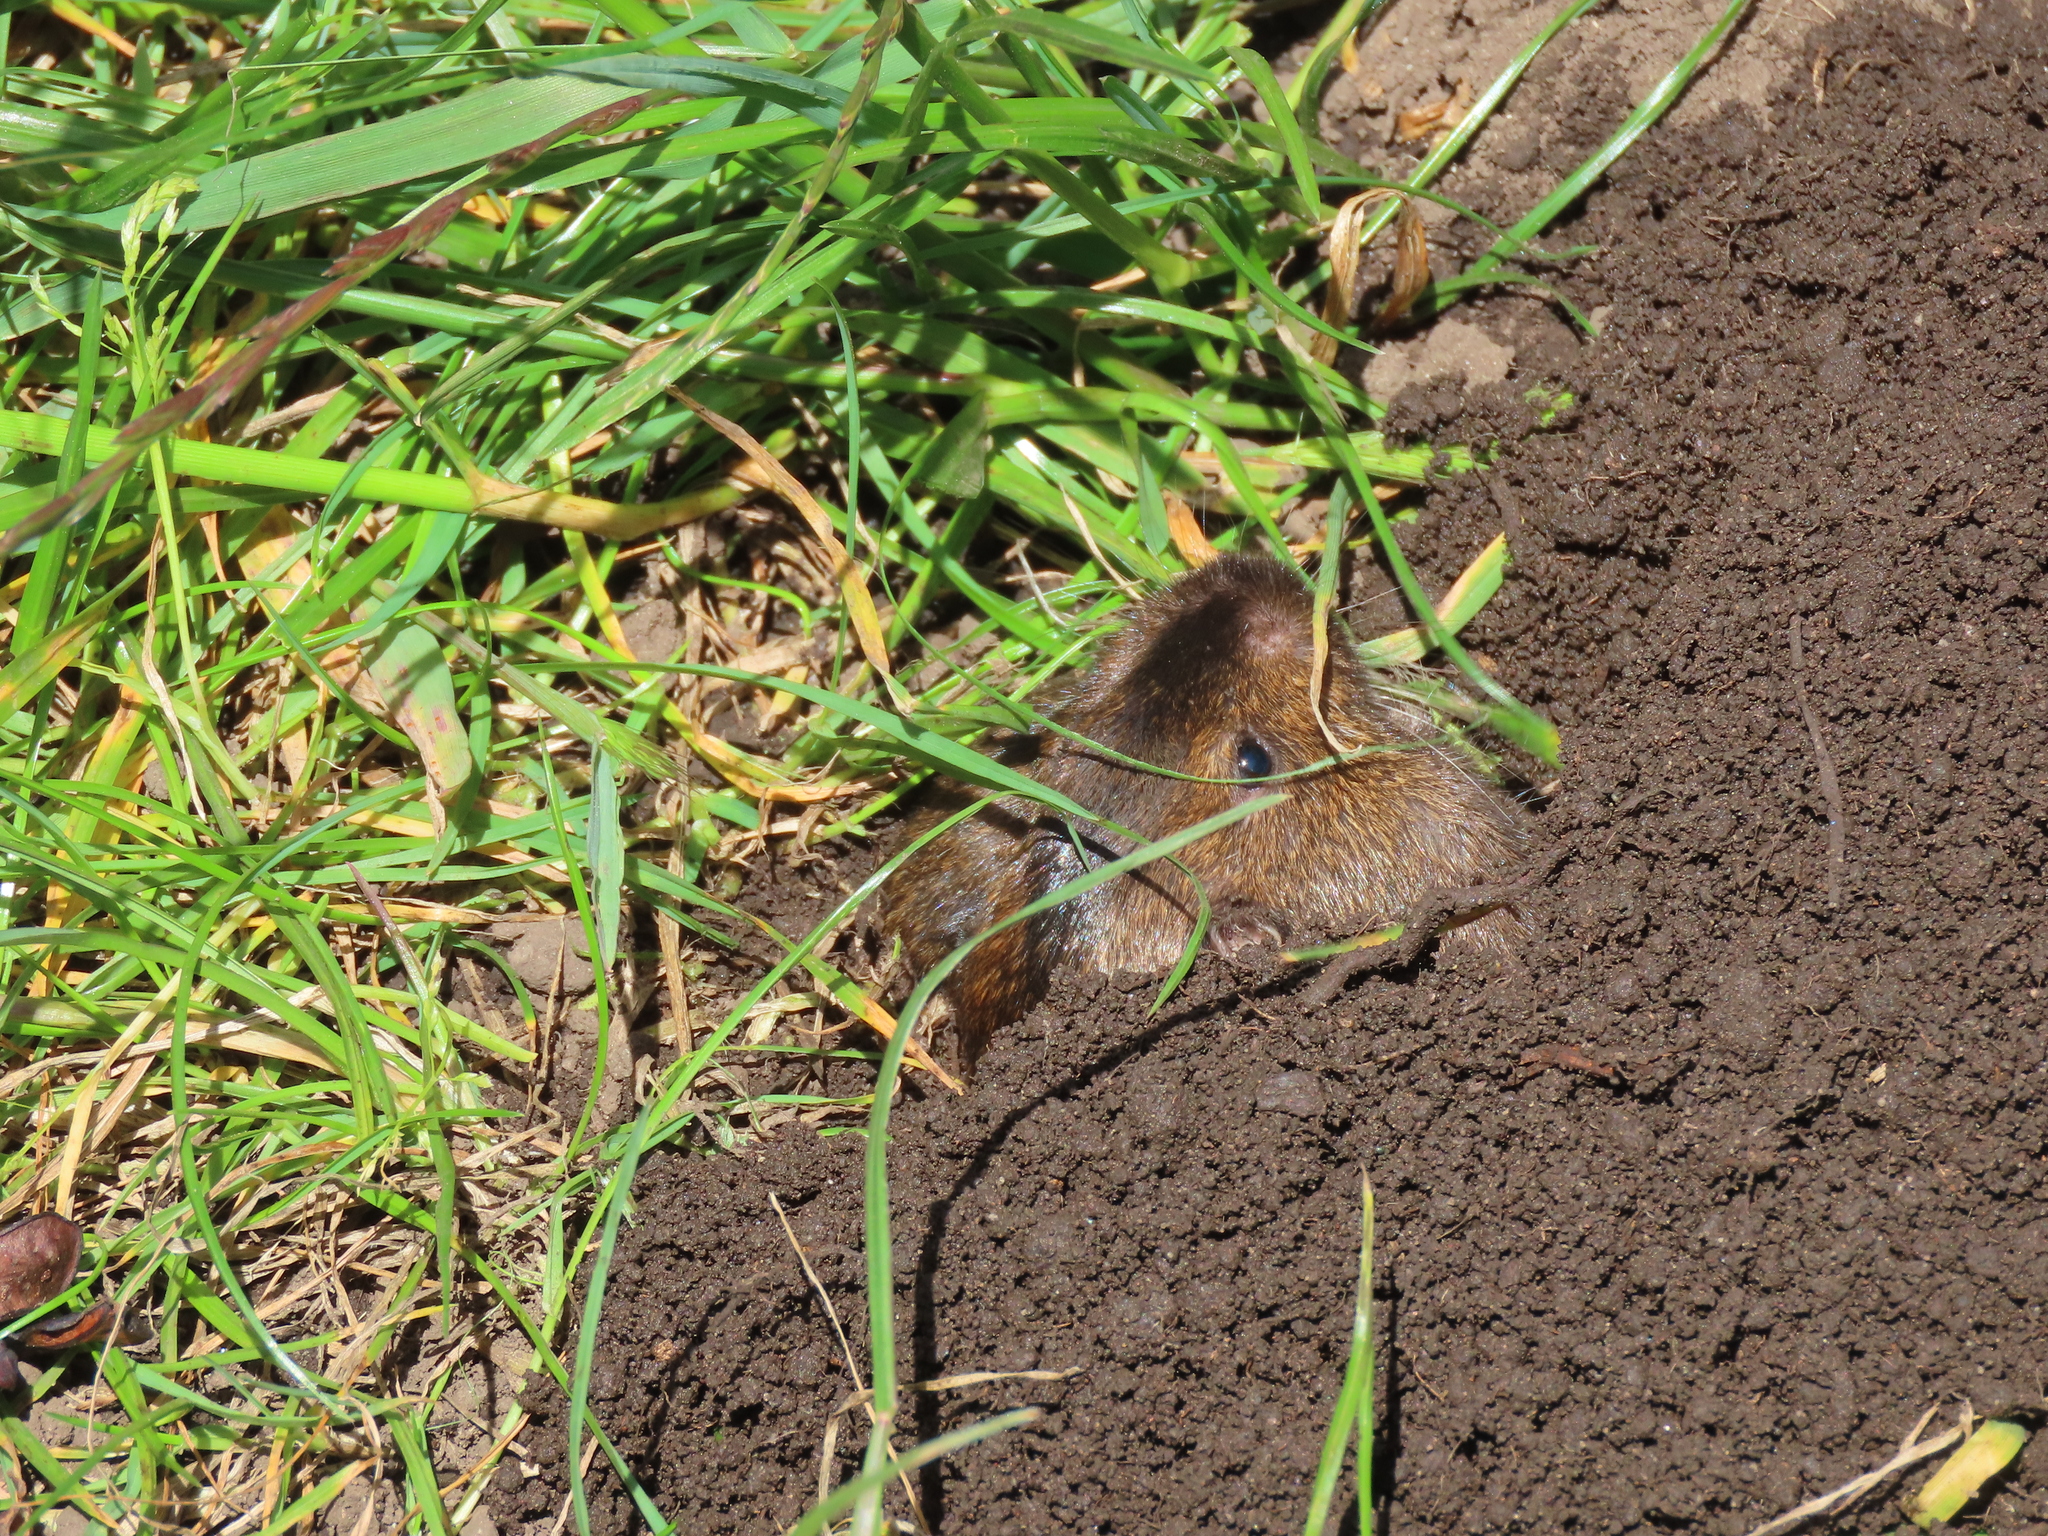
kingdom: Animalia
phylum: Chordata
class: Mammalia
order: Rodentia
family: Geomyidae
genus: Thomomys
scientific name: Thomomys bottae
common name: Botta's pocket gopher
